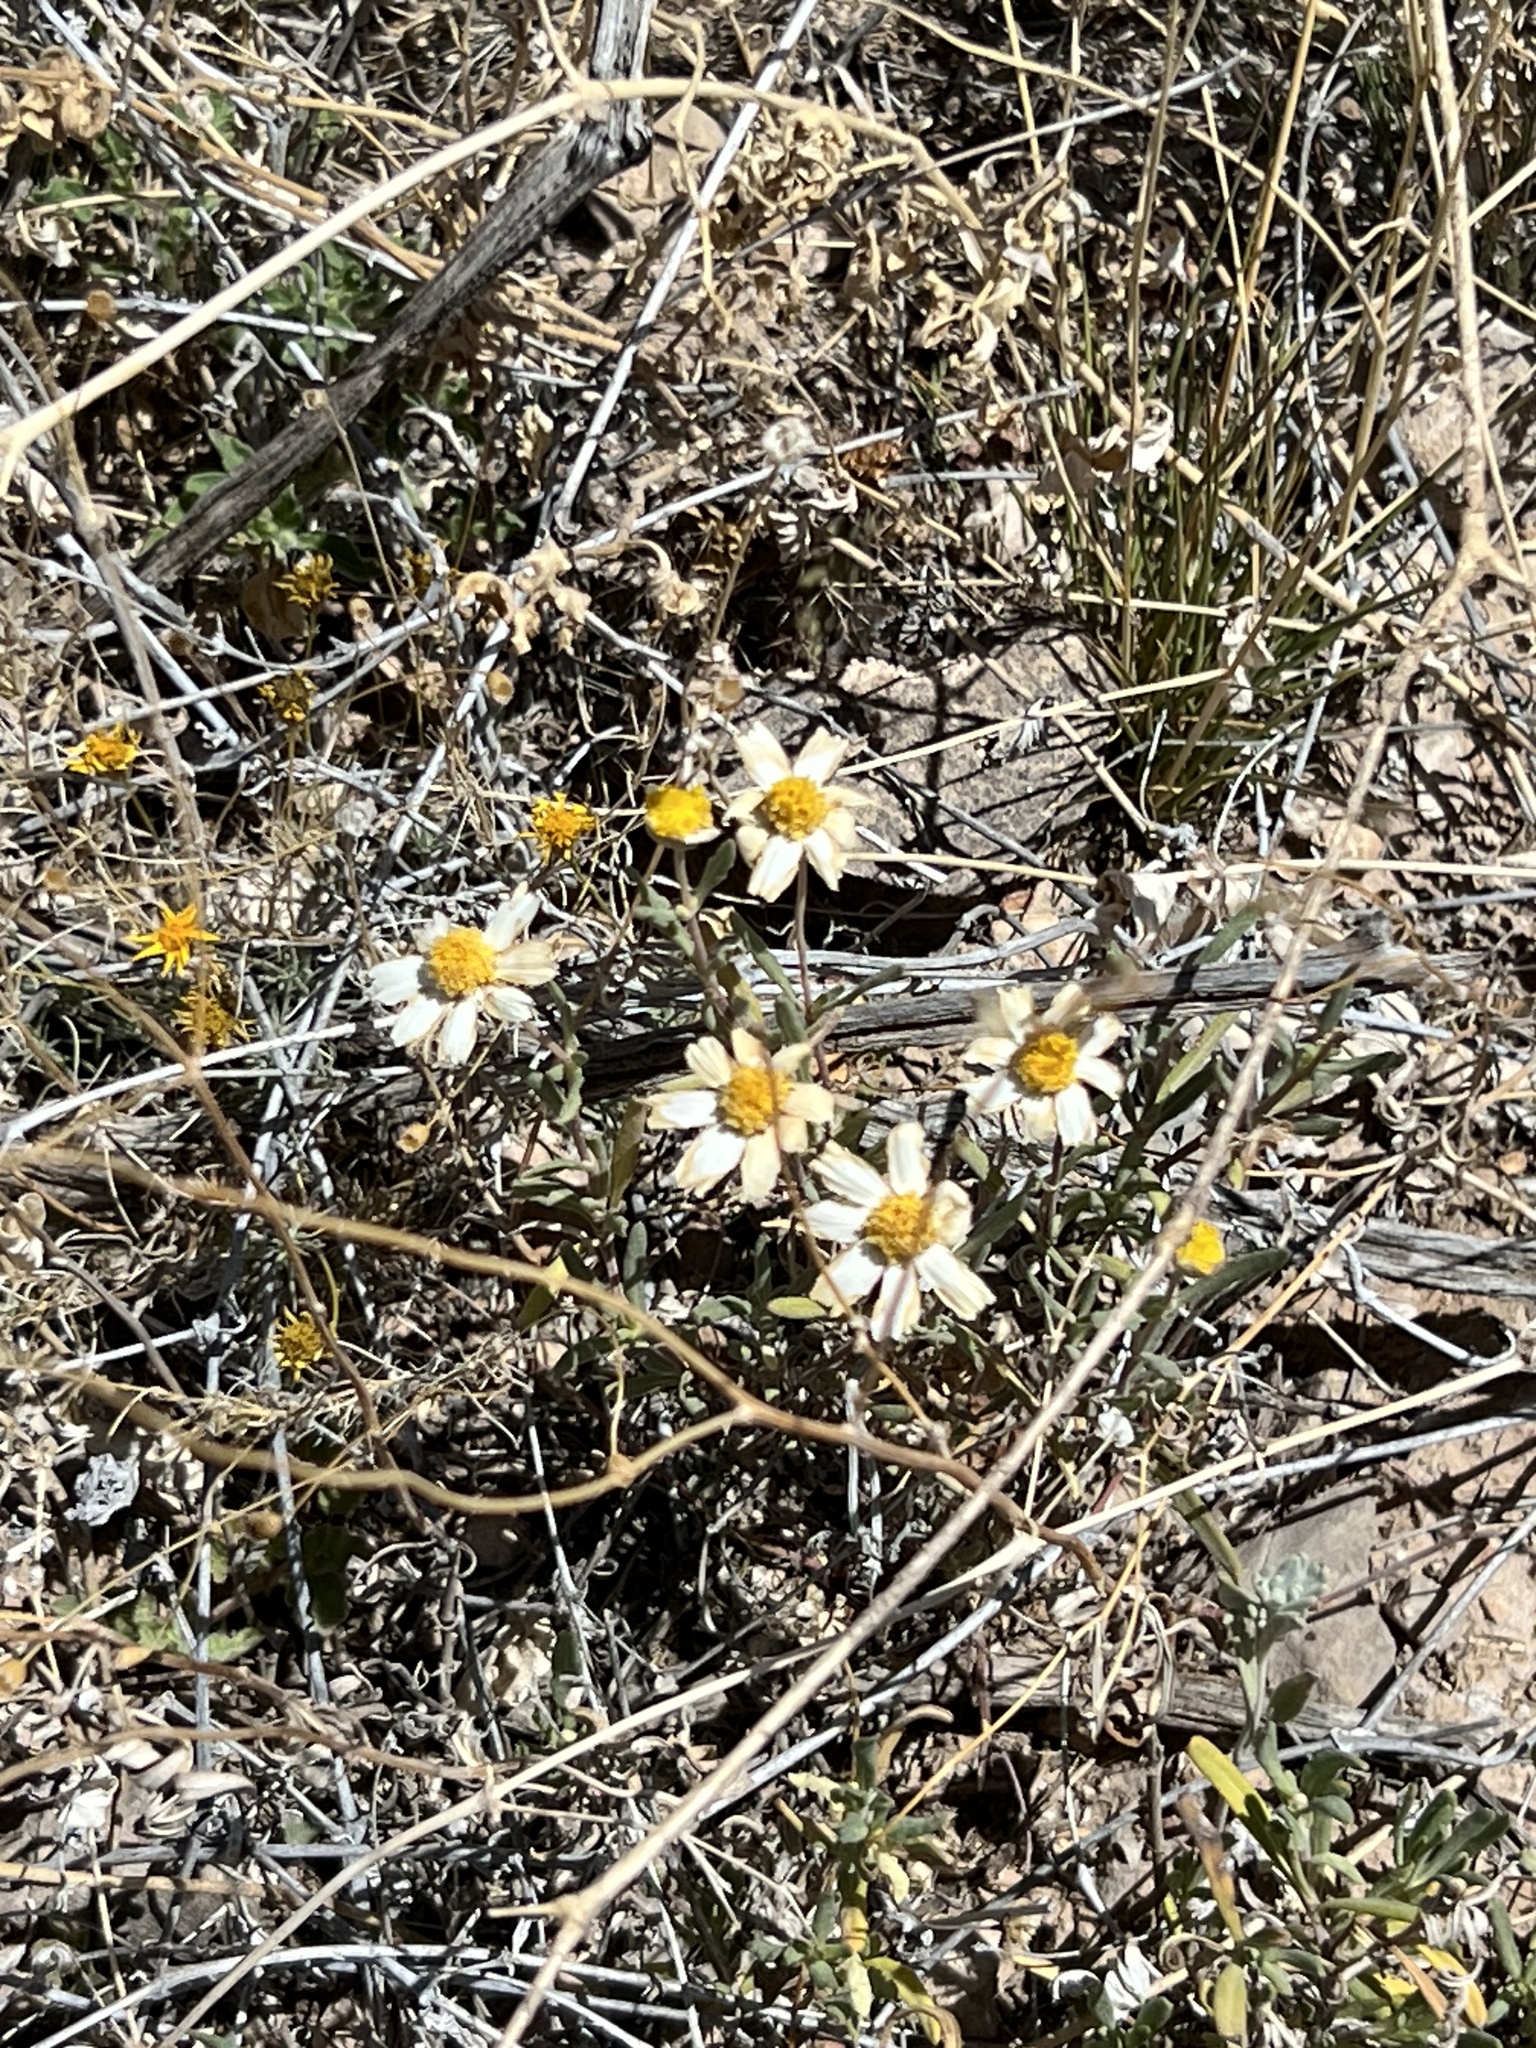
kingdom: Plantae
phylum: Tracheophyta
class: Magnoliopsida
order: Asterales
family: Asteraceae
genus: Melampodium
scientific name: Melampodium leucanthum
